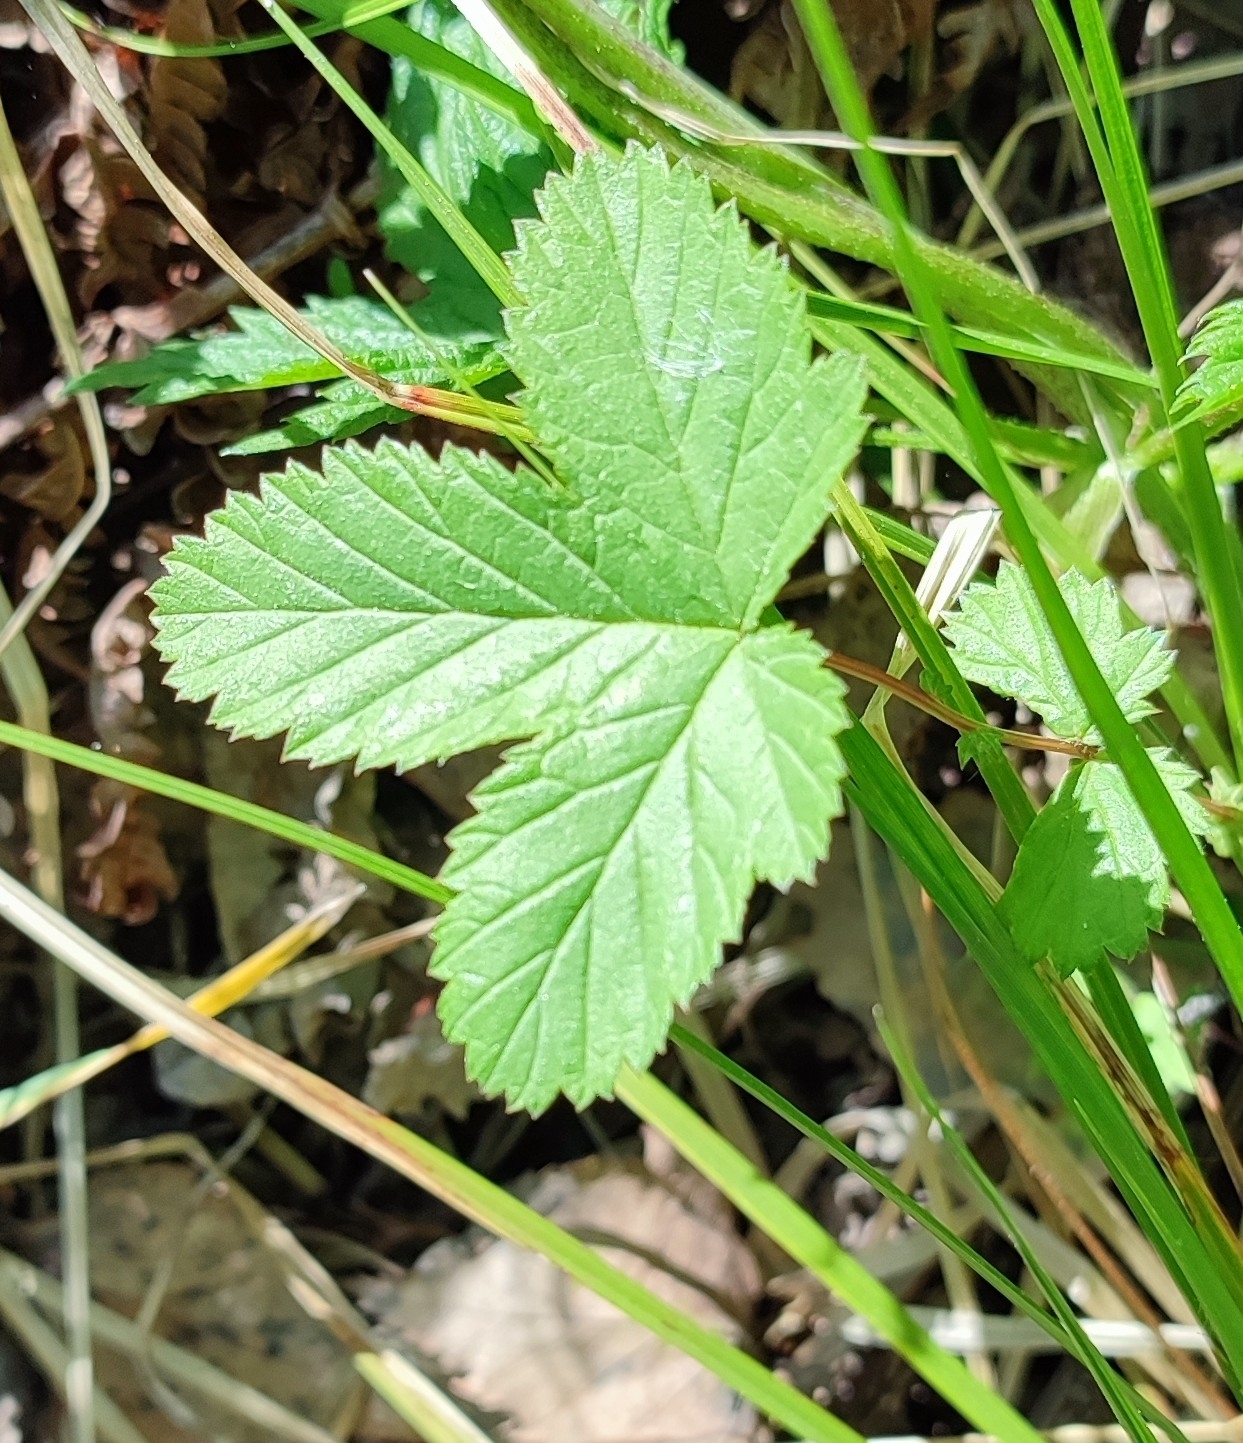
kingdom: Plantae
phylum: Tracheophyta
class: Magnoliopsida
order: Rosales
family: Rosaceae
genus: Filipendula
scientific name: Filipendula ulmaria
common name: Meadowsweet
